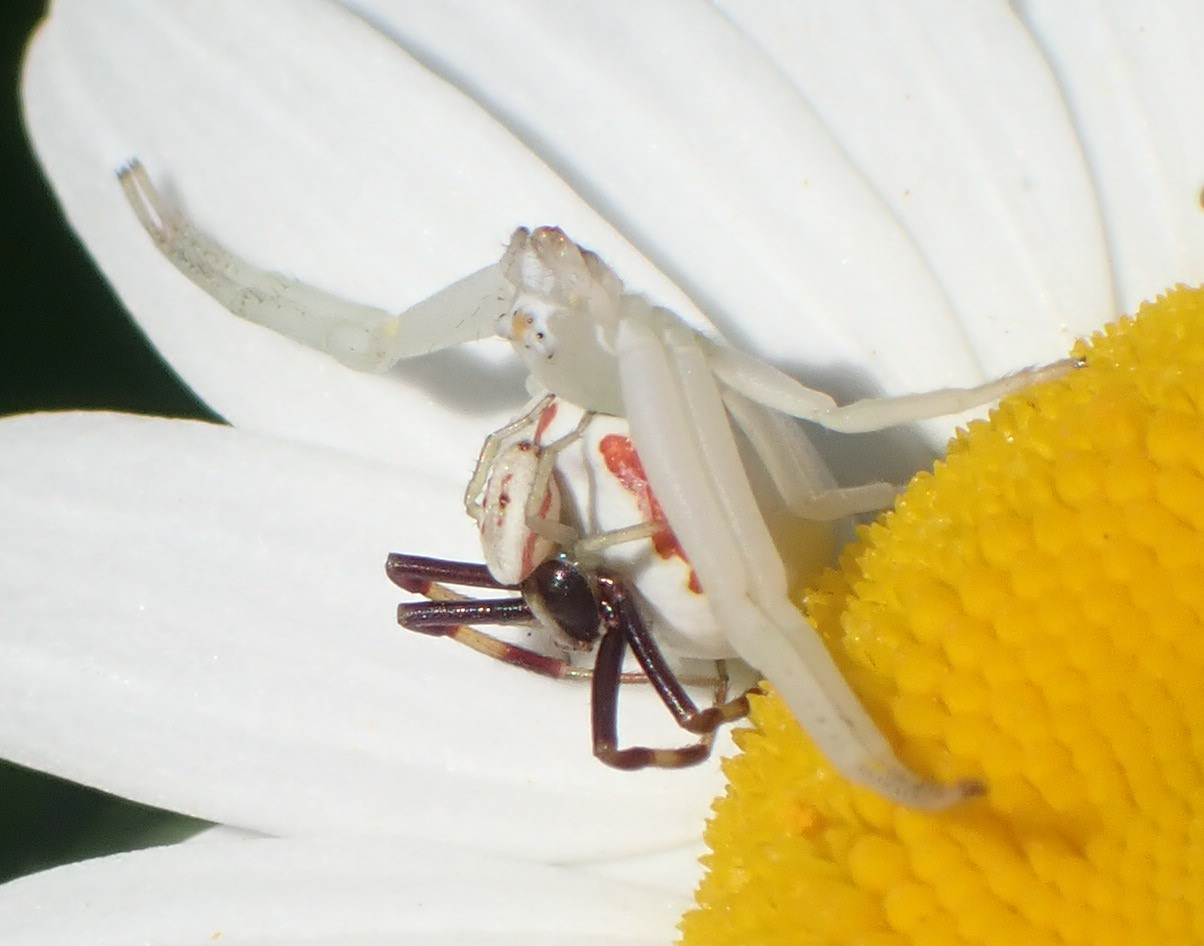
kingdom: Animalia
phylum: Arthropoda
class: Arachnida
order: Araneae
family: Thomisidae
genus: Misumena
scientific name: Misumena vatia
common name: Goldenrod crab spider
